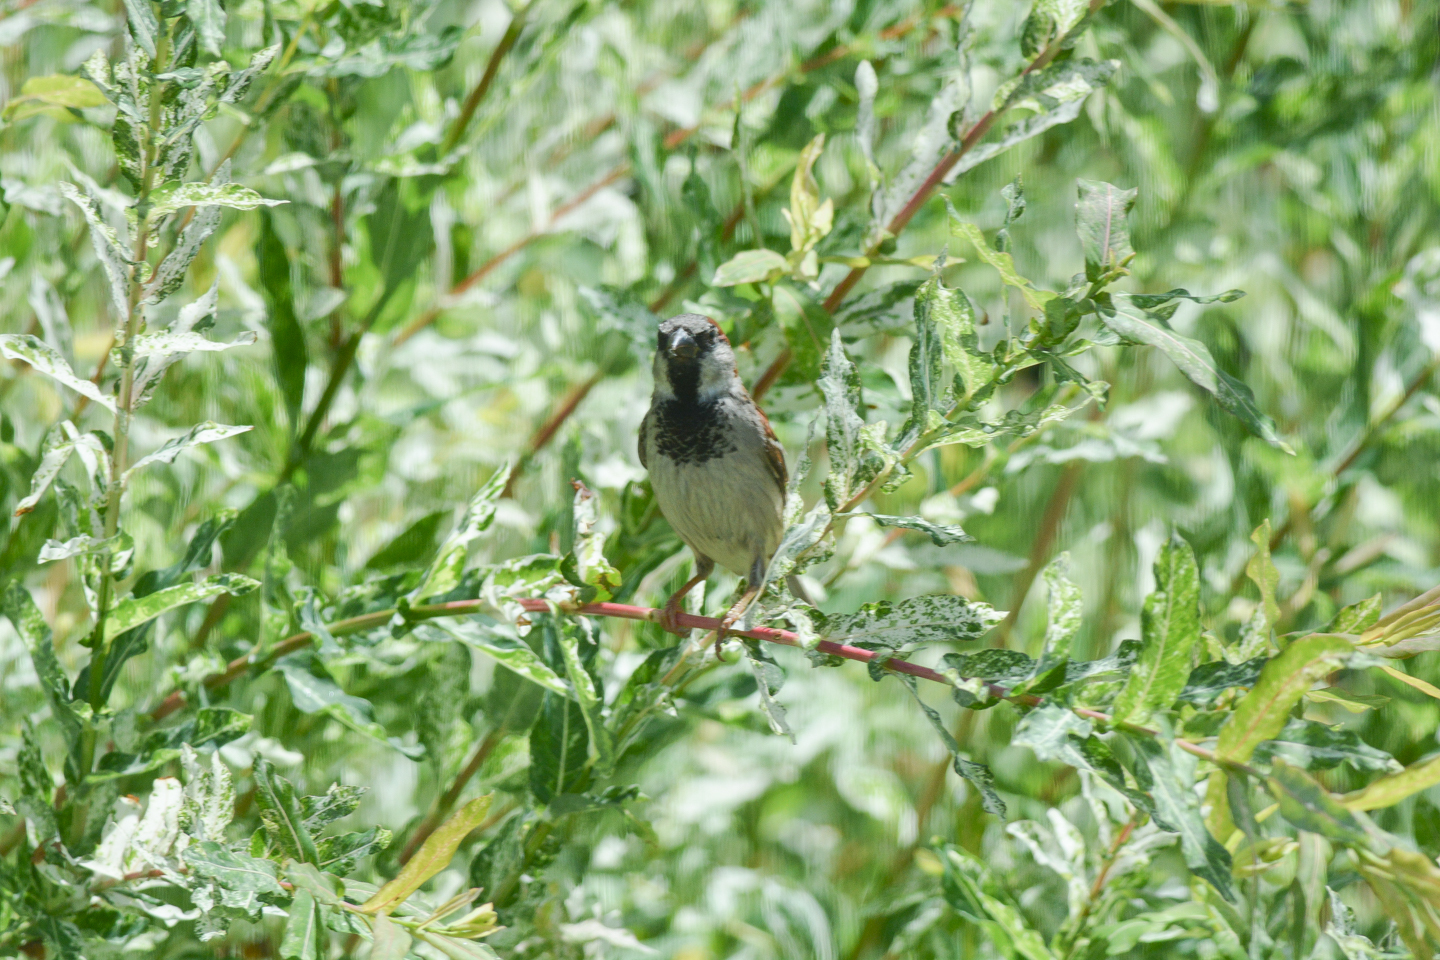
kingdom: Animalia
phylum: Chordata
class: Aves
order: Passeriformes
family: Passeridae
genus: Passer
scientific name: Passer domesticus
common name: House sparrow
